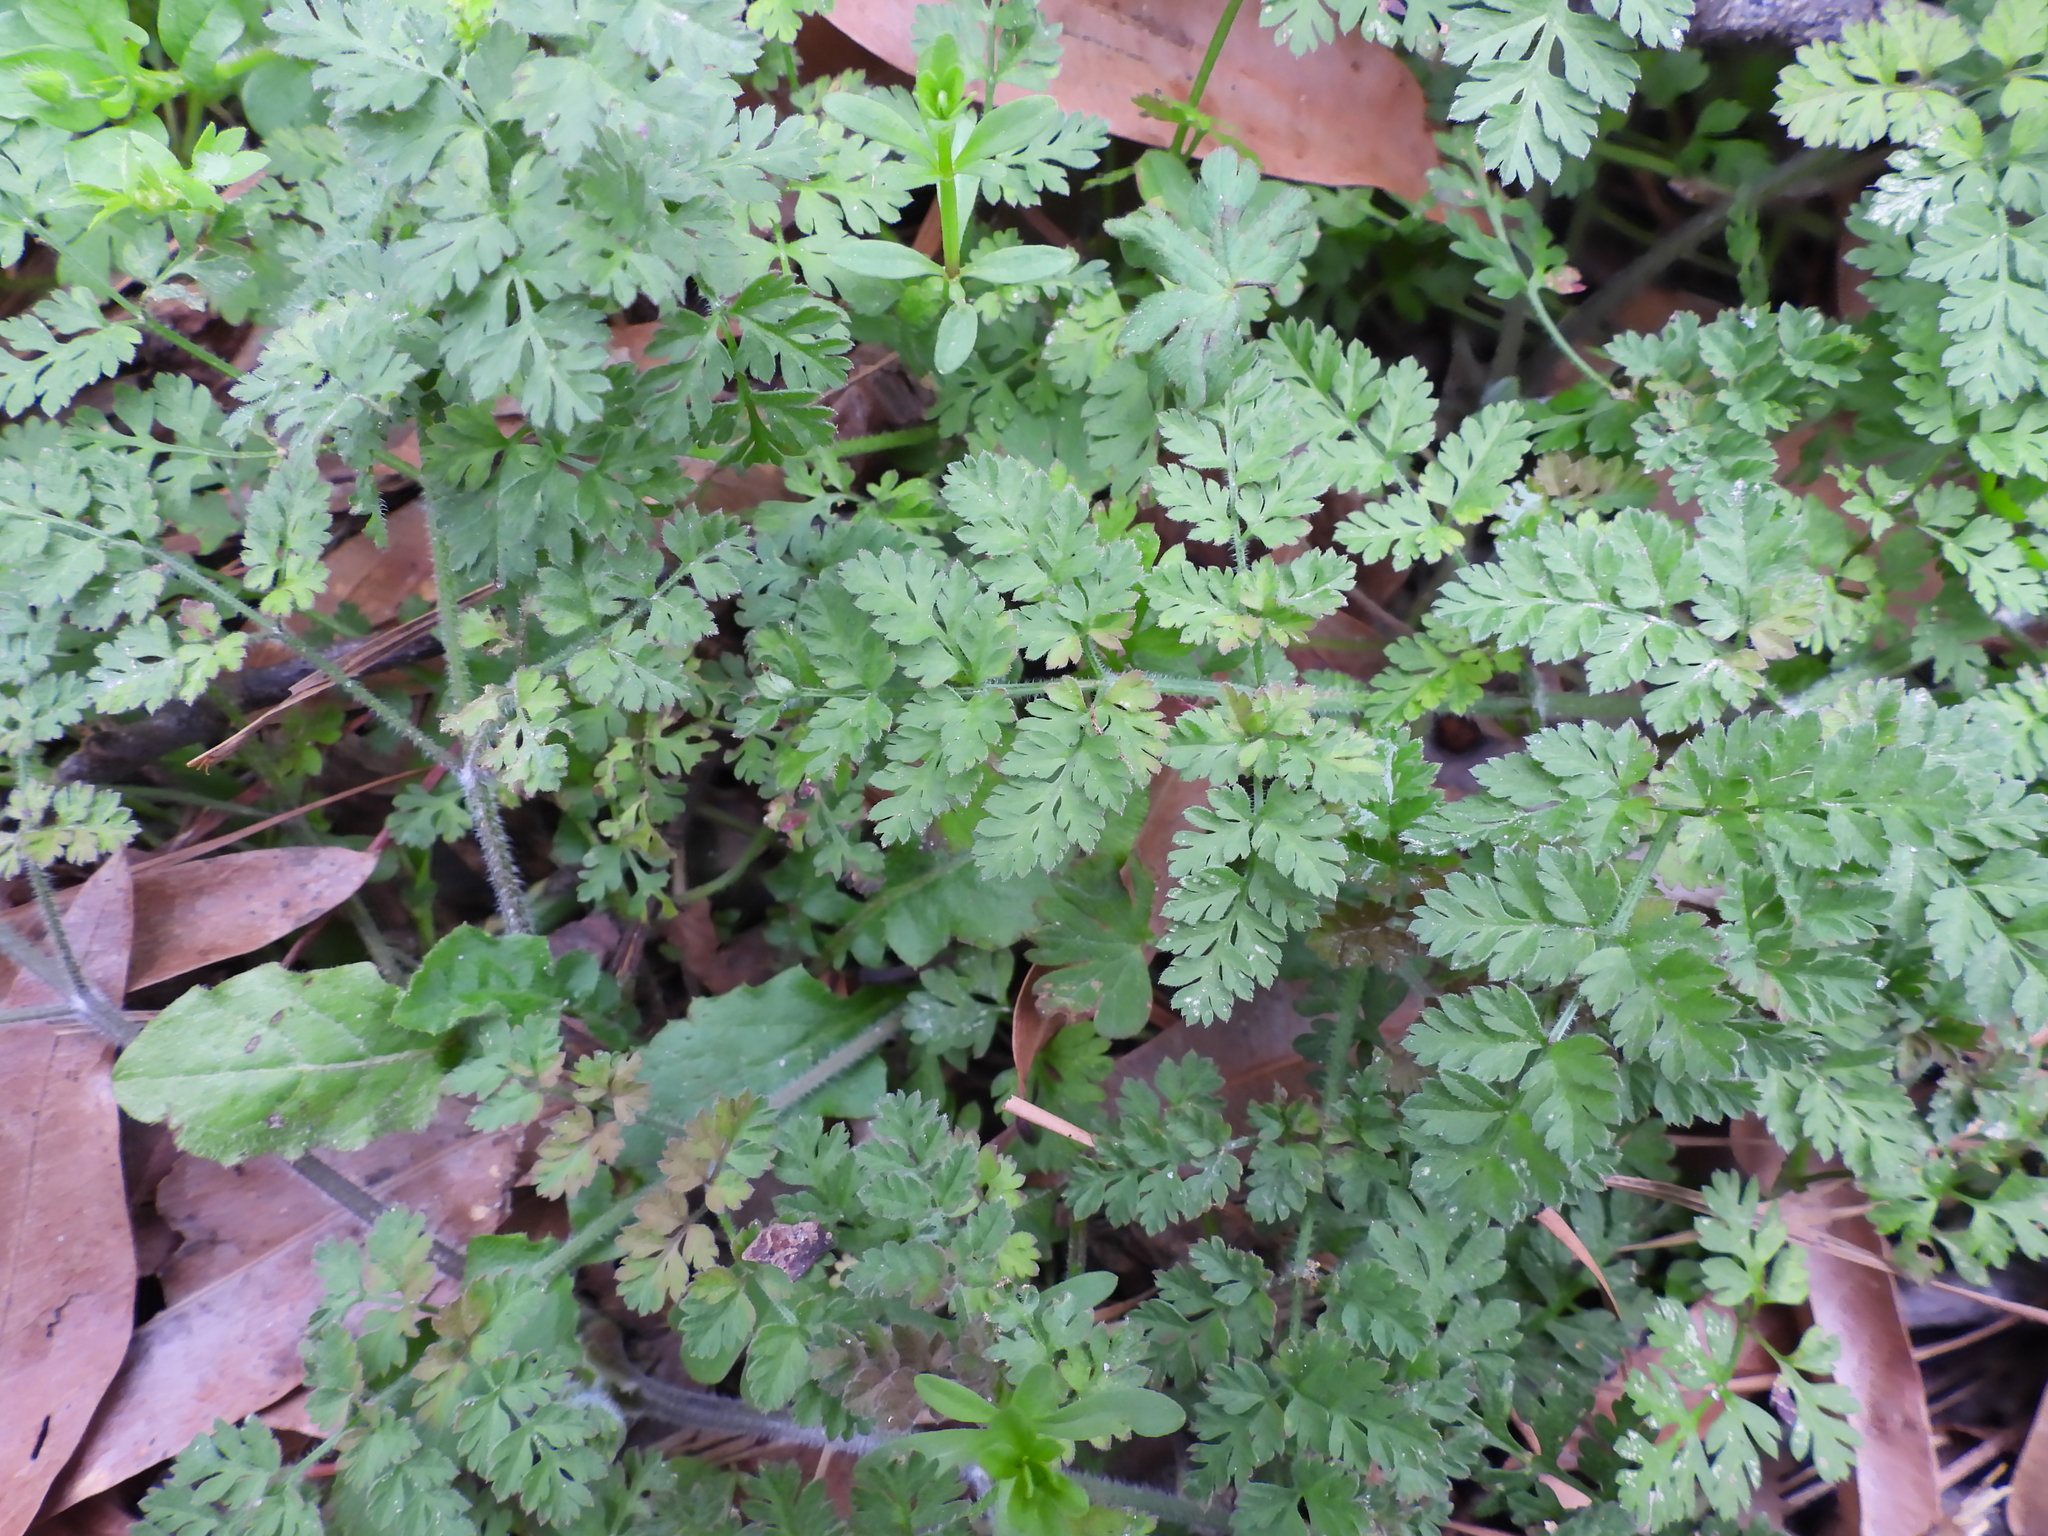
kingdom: Plantae
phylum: Tracheophyta
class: Magnoliopsida
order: Apiales
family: Apiaceae
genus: Chaerophyllum
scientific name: Chaerophyllum tainturieri
